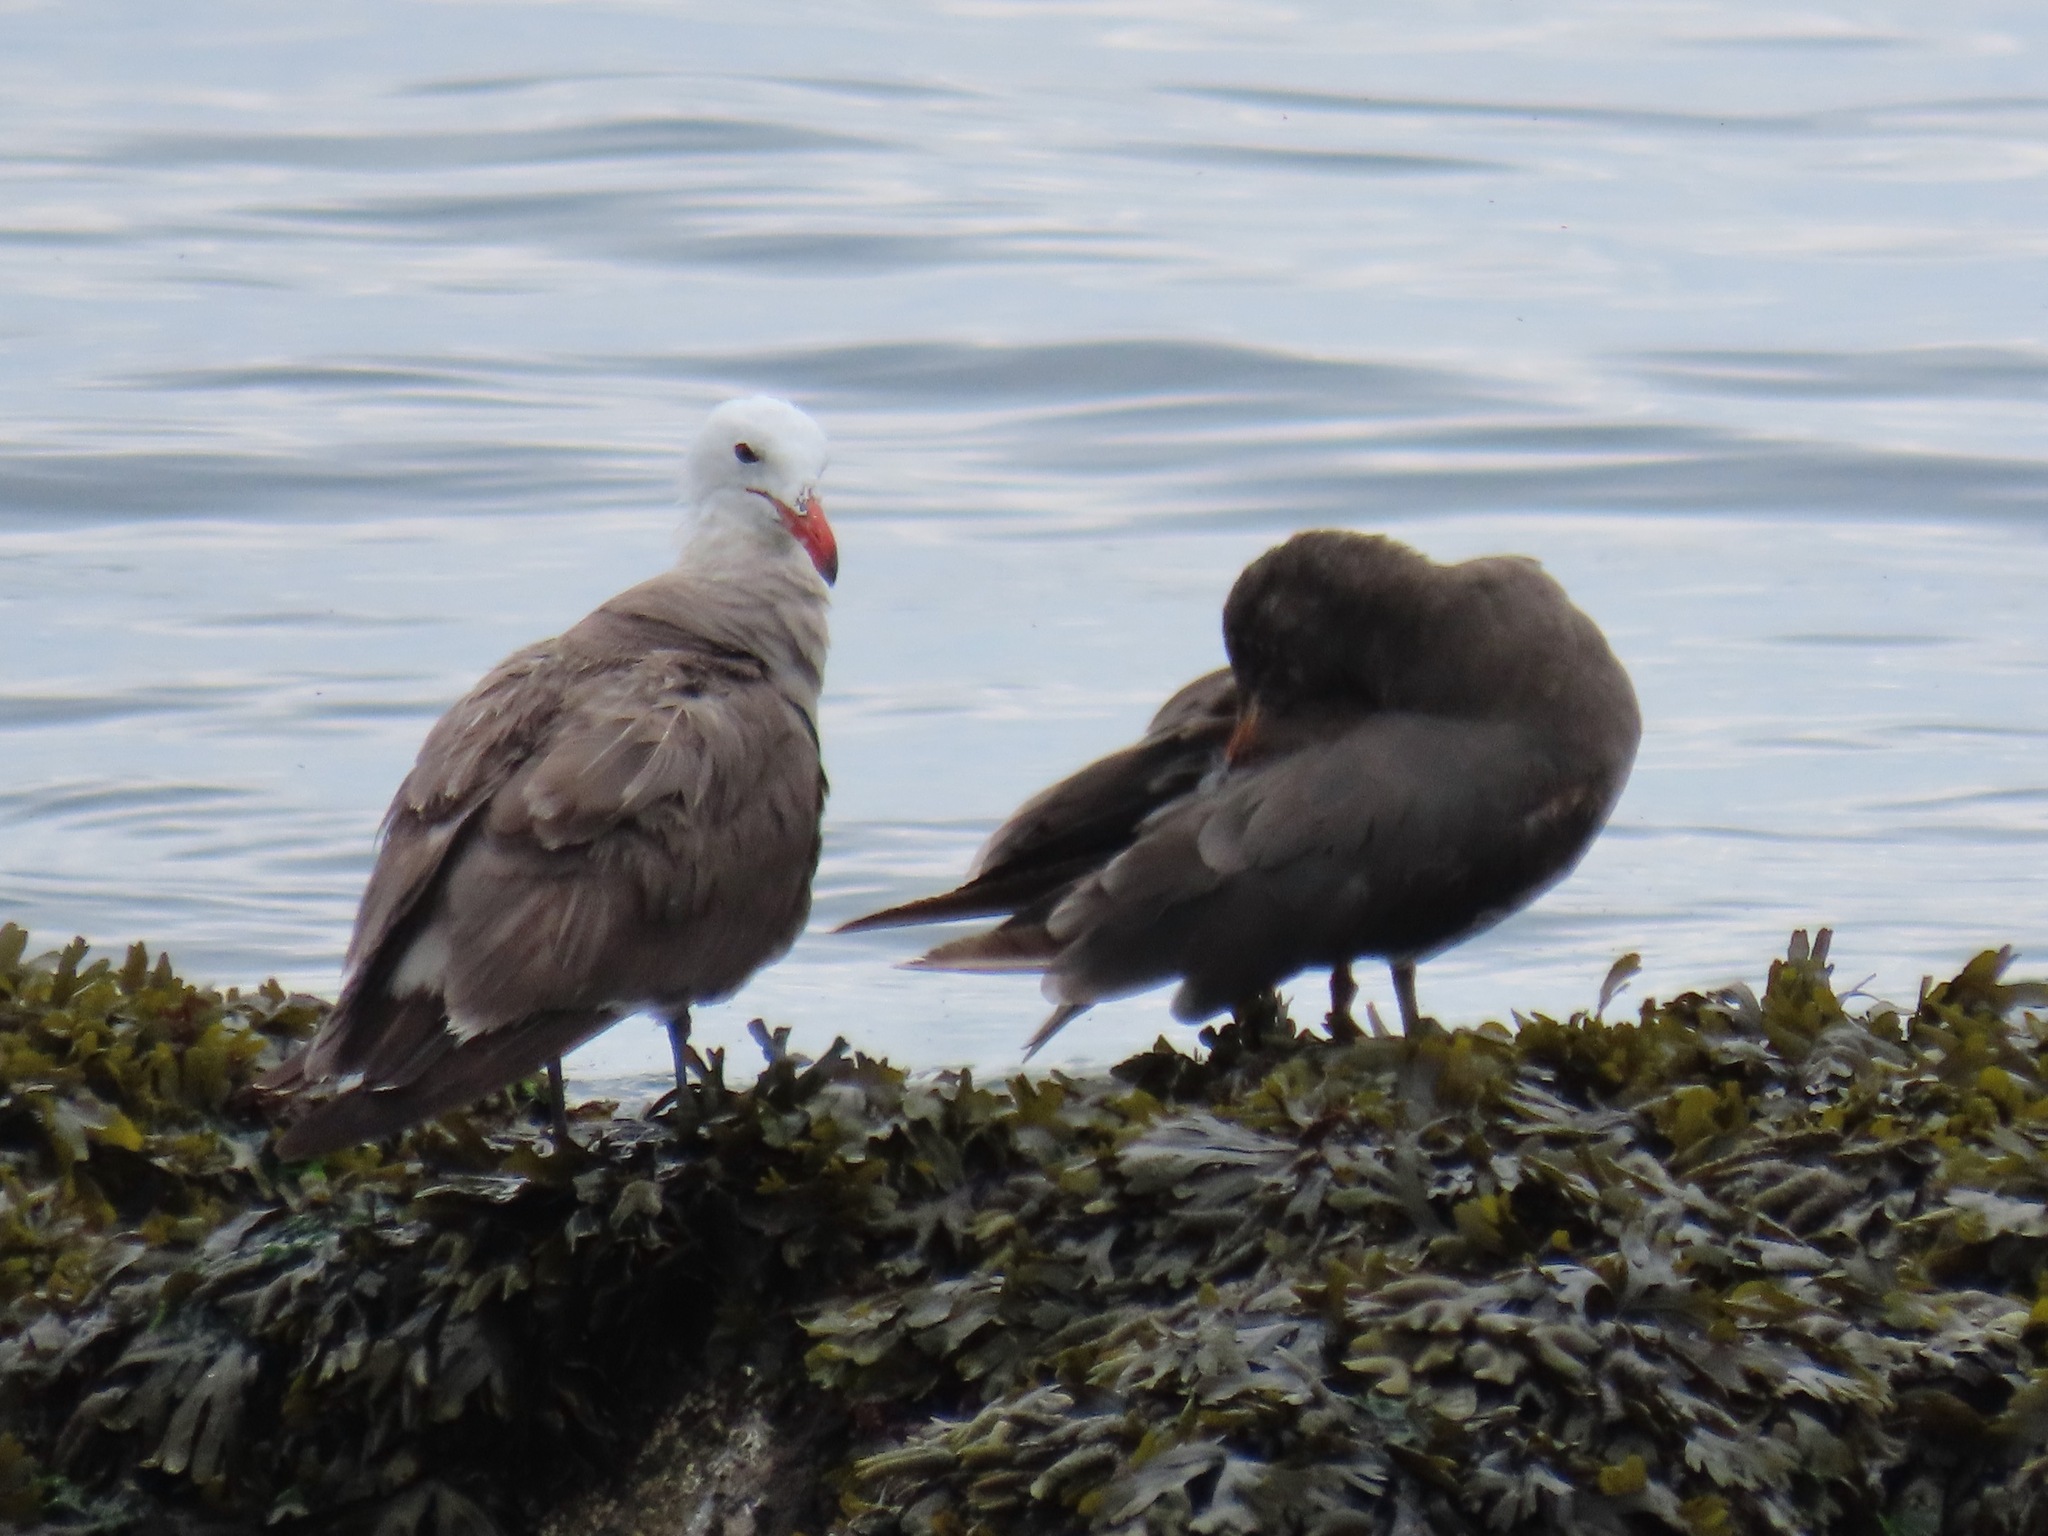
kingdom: Animalia
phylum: Chordata
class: Aves
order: Charadriiformes
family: Laridae
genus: Larus
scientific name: Larus heermanni
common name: Heermann's gull
